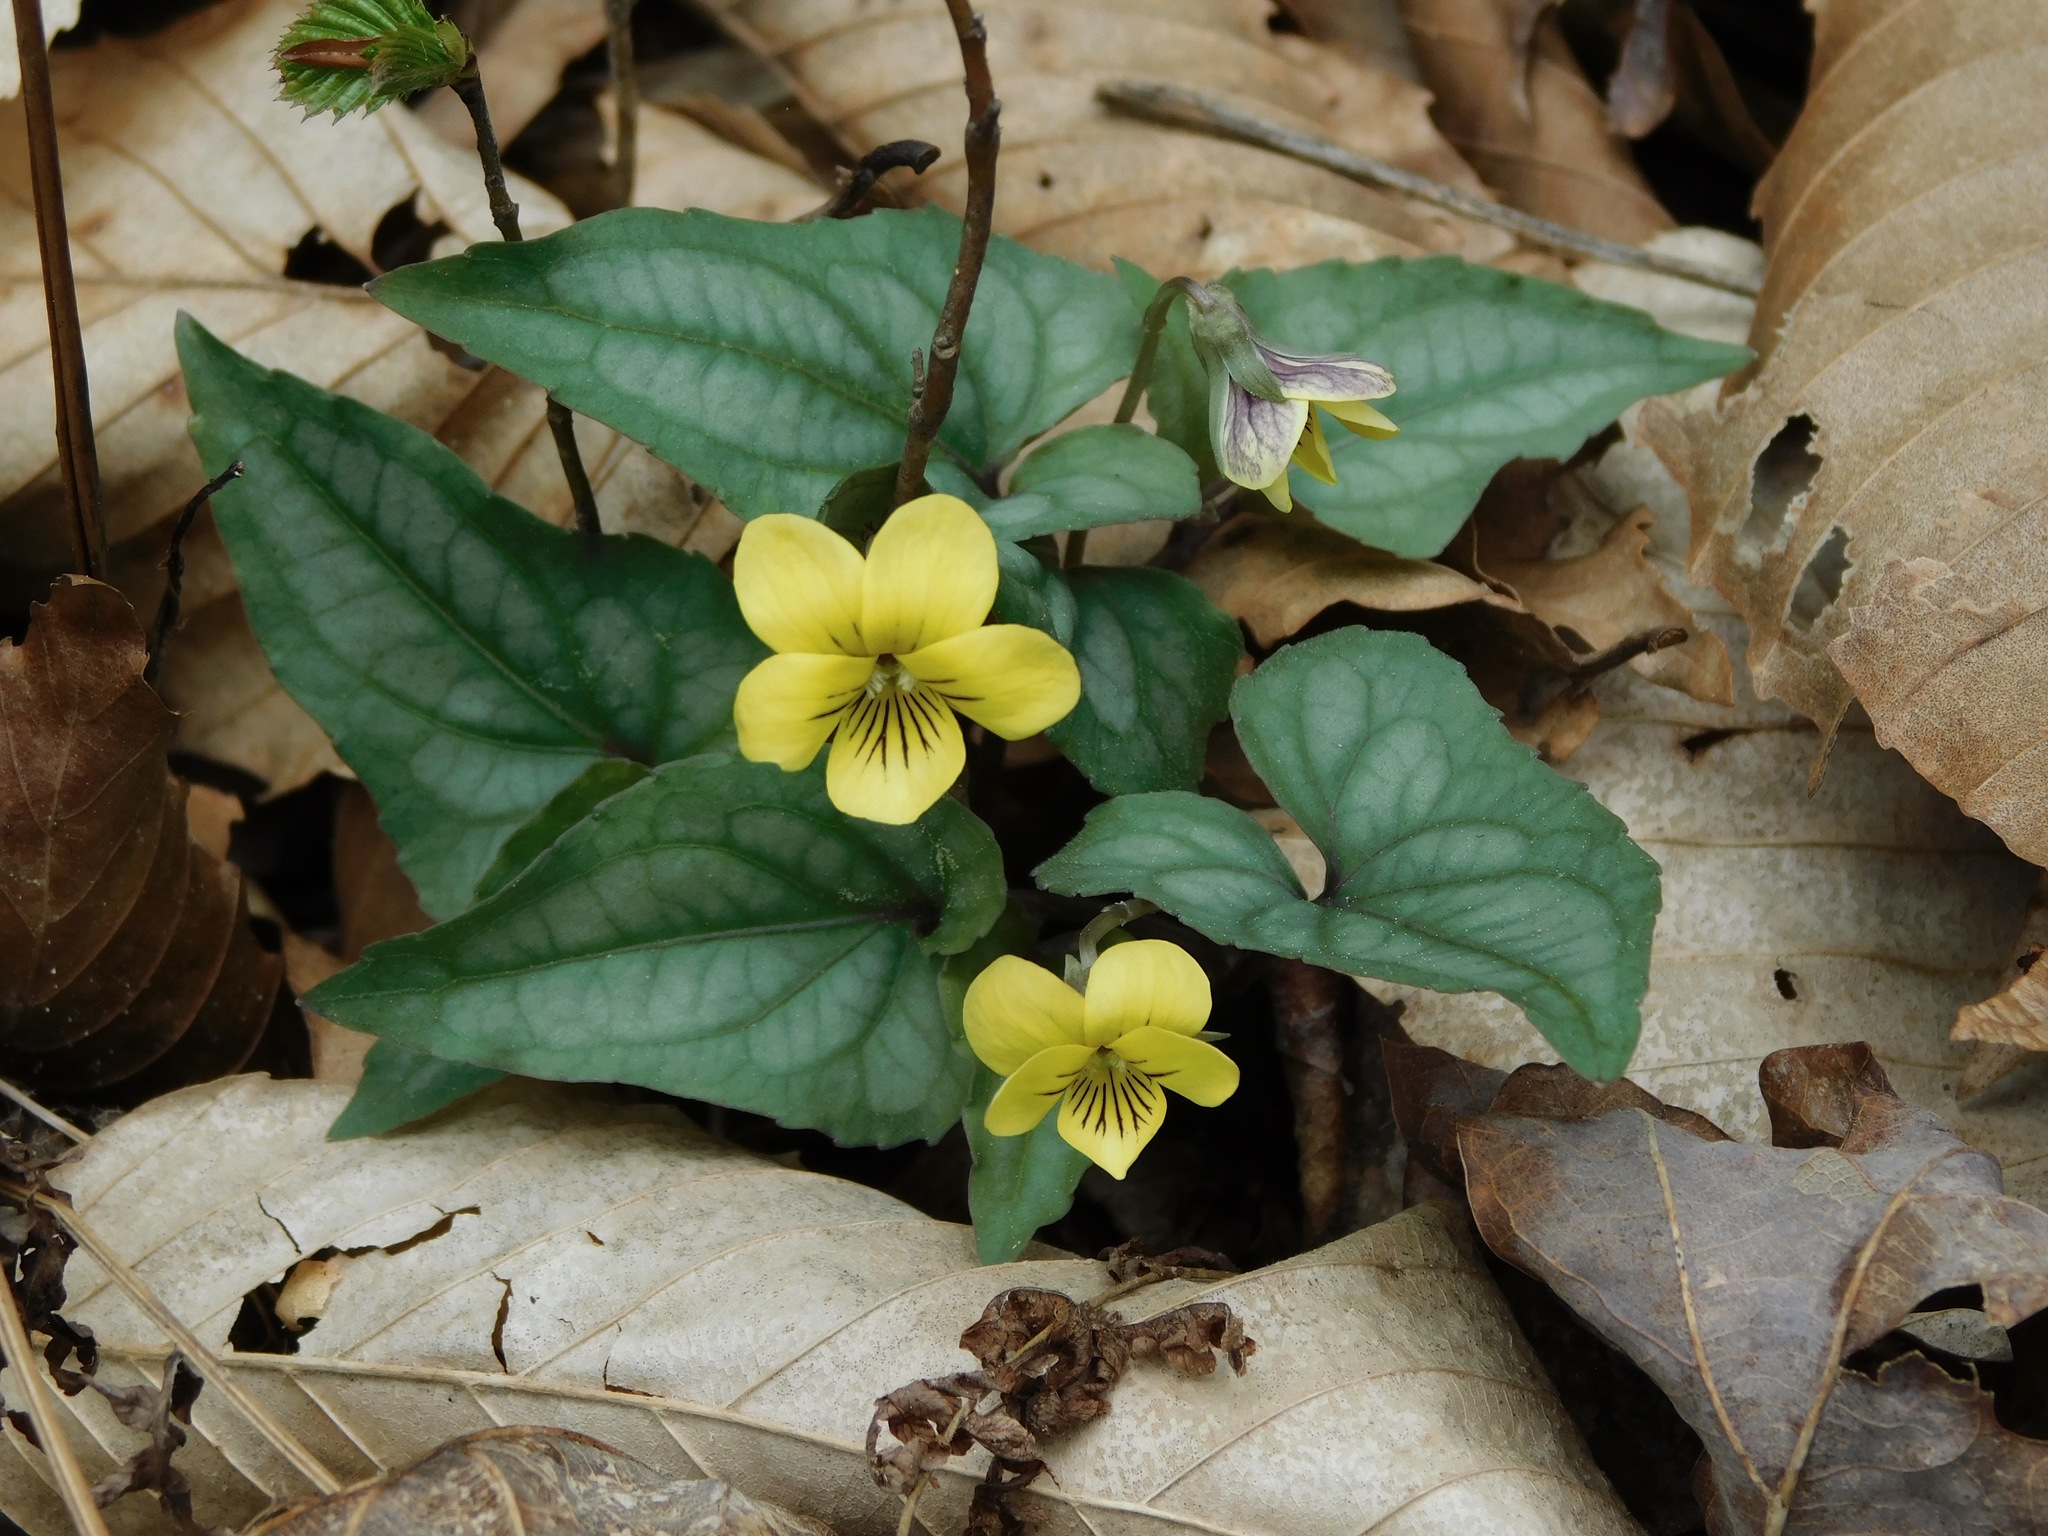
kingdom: Plantae
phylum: Tracheophyta
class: Magnoliopsida
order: Malpighiales
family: Violaceae
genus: Viola
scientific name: Viola hastata
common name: Spear-leaf violet
